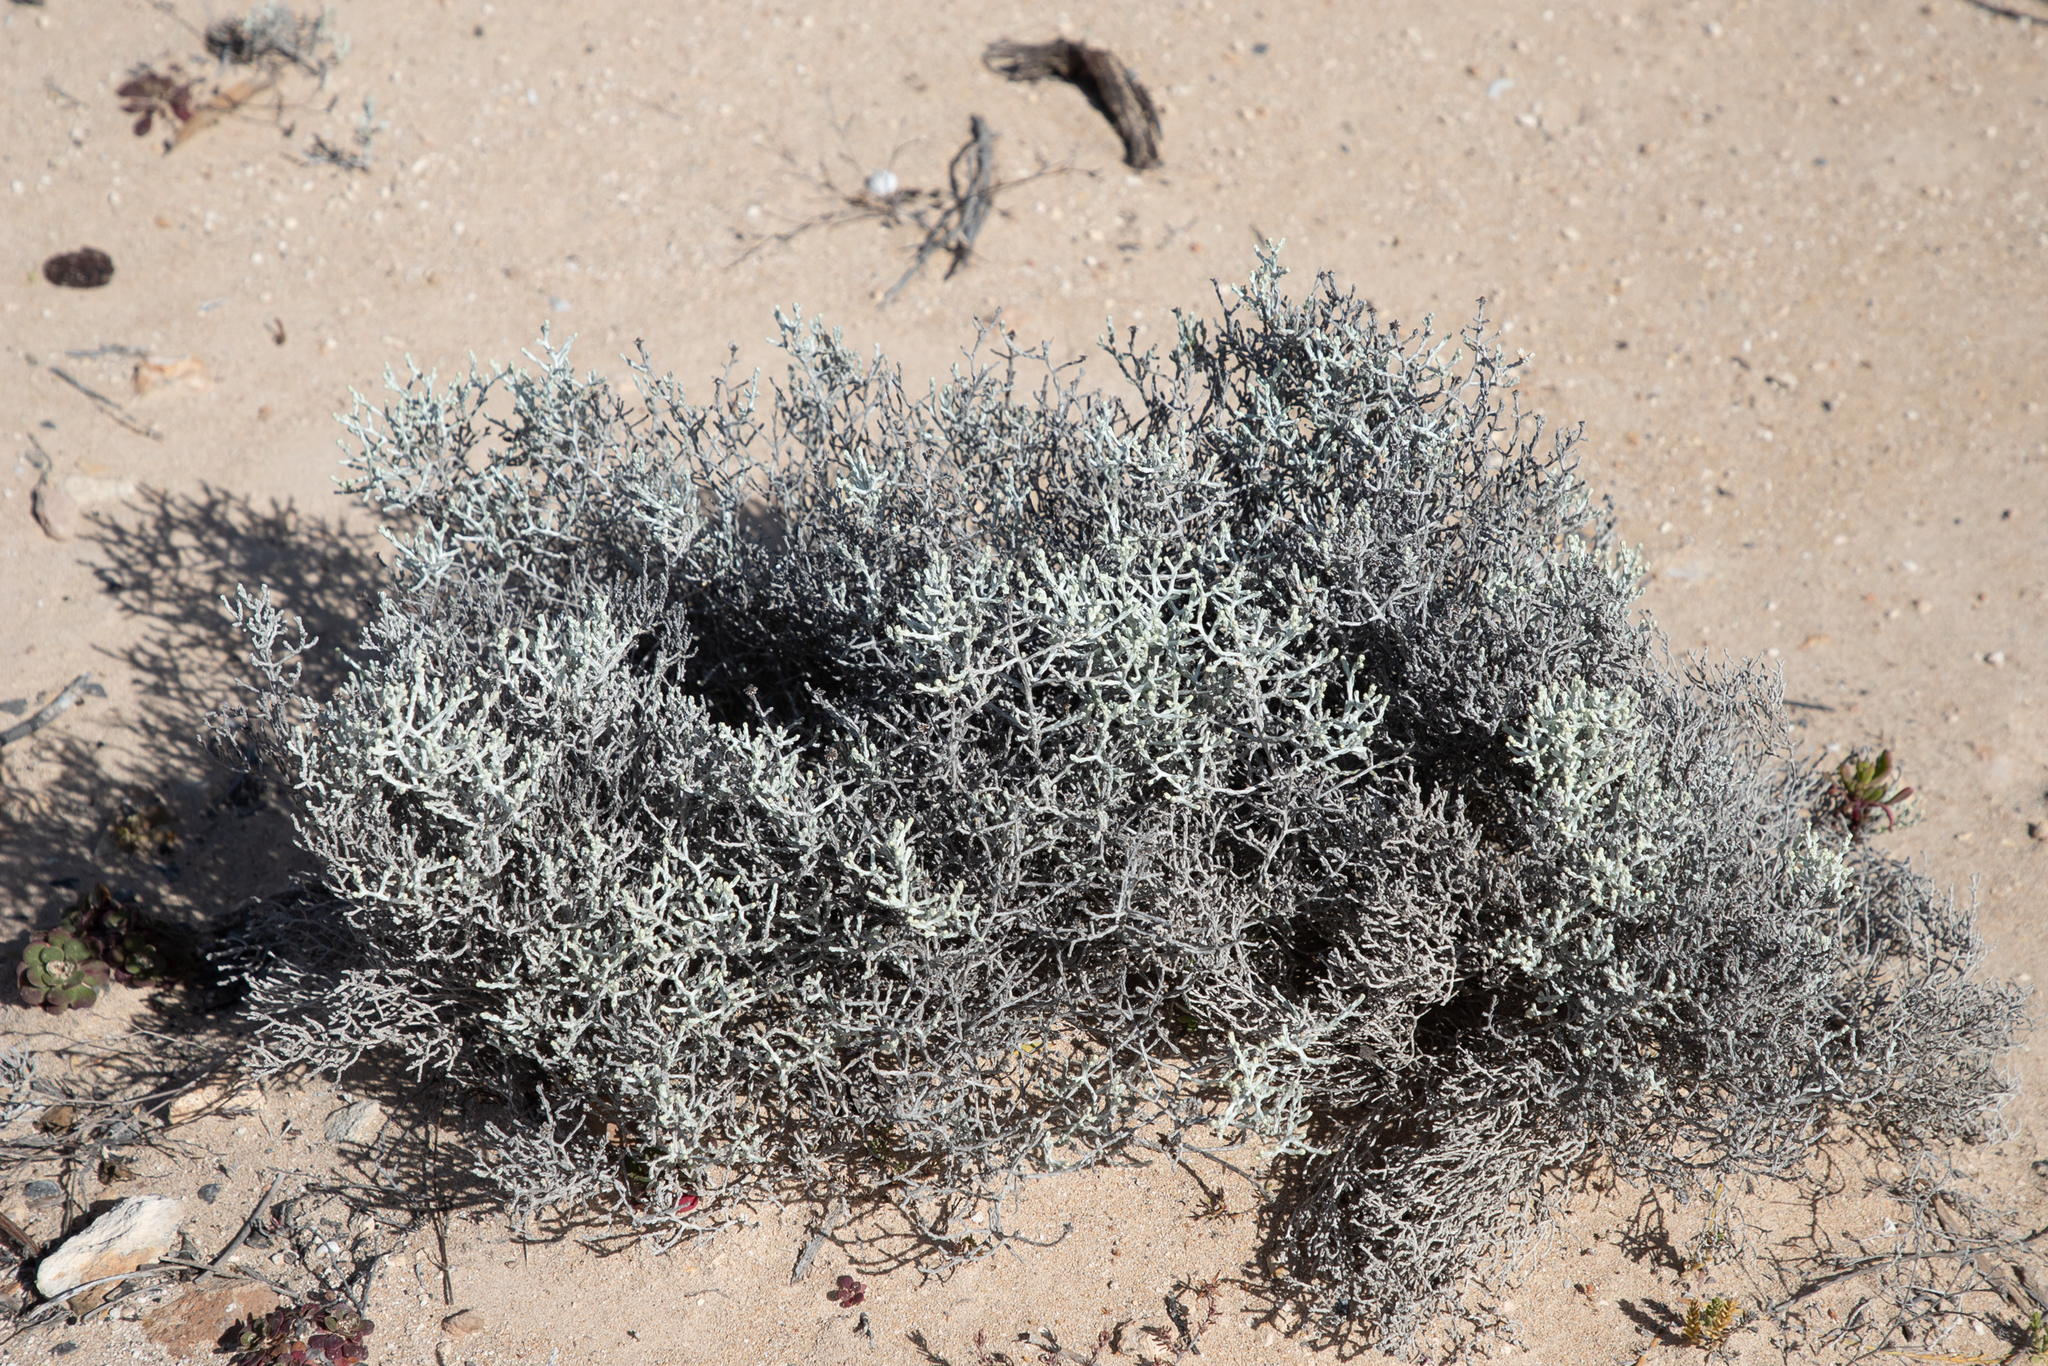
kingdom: Plantae
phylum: Tracheophyta
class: Magnoliopsida
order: Asterales
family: Asteraceae
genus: Calocephalus
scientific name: Calocephalus brownii
